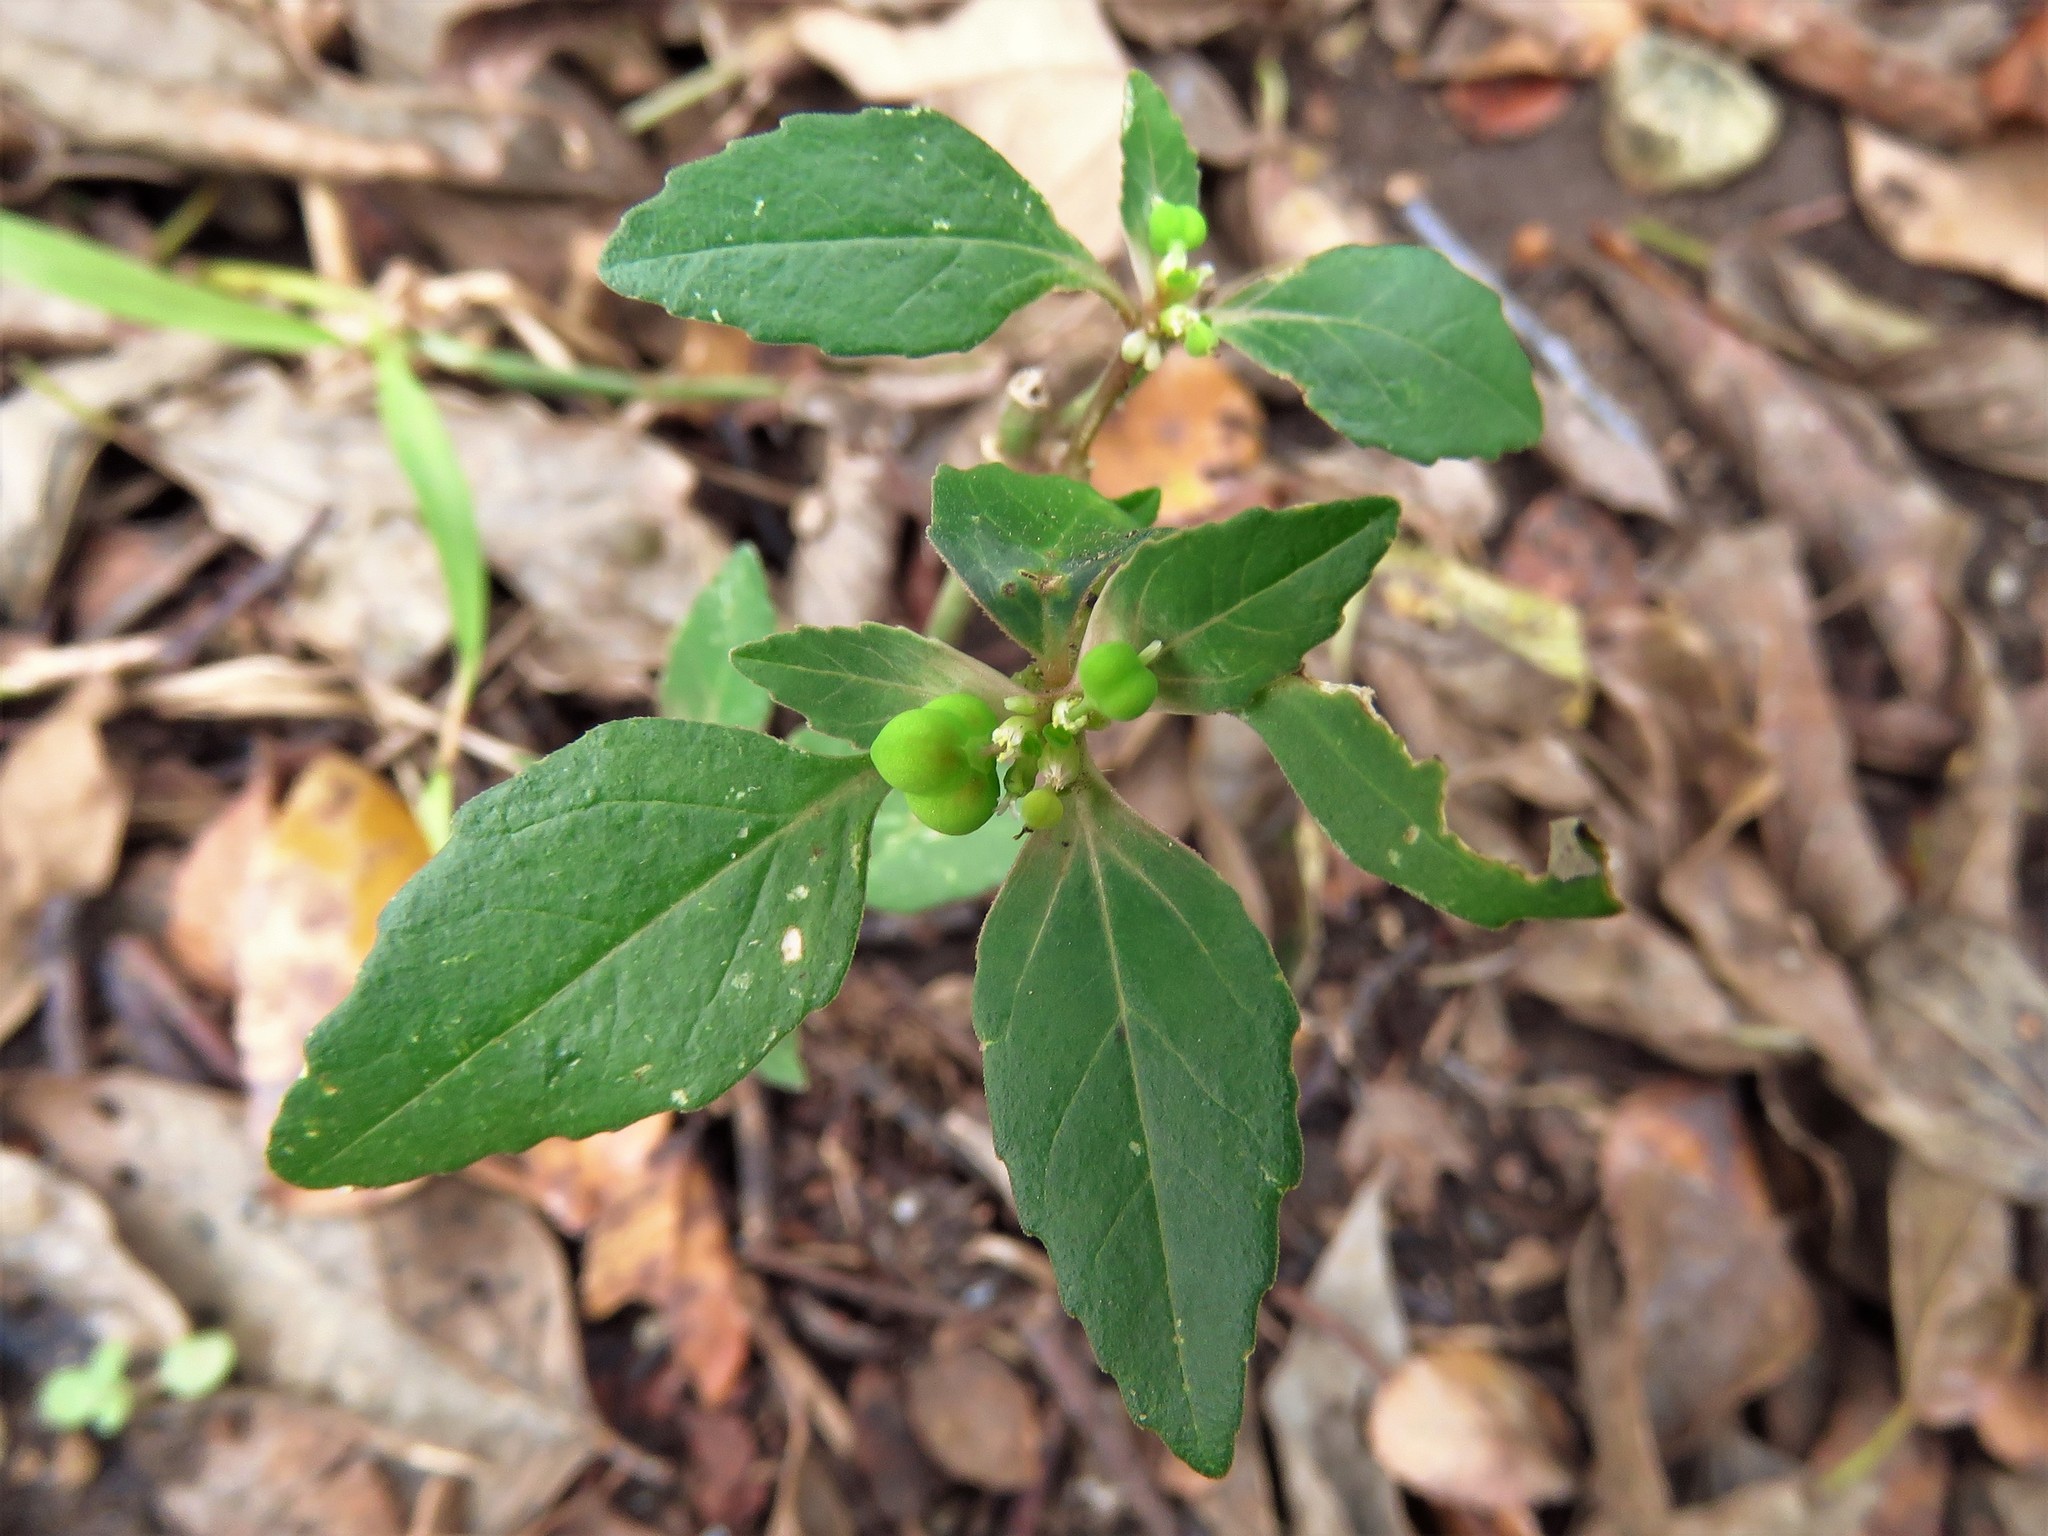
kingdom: Plantae
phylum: Tracheophyta
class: Magnoliopsida
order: Malpighiales
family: Euphorbiaceae
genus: Euphorbia
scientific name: Euphorbia dentata
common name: Dentate spurge
